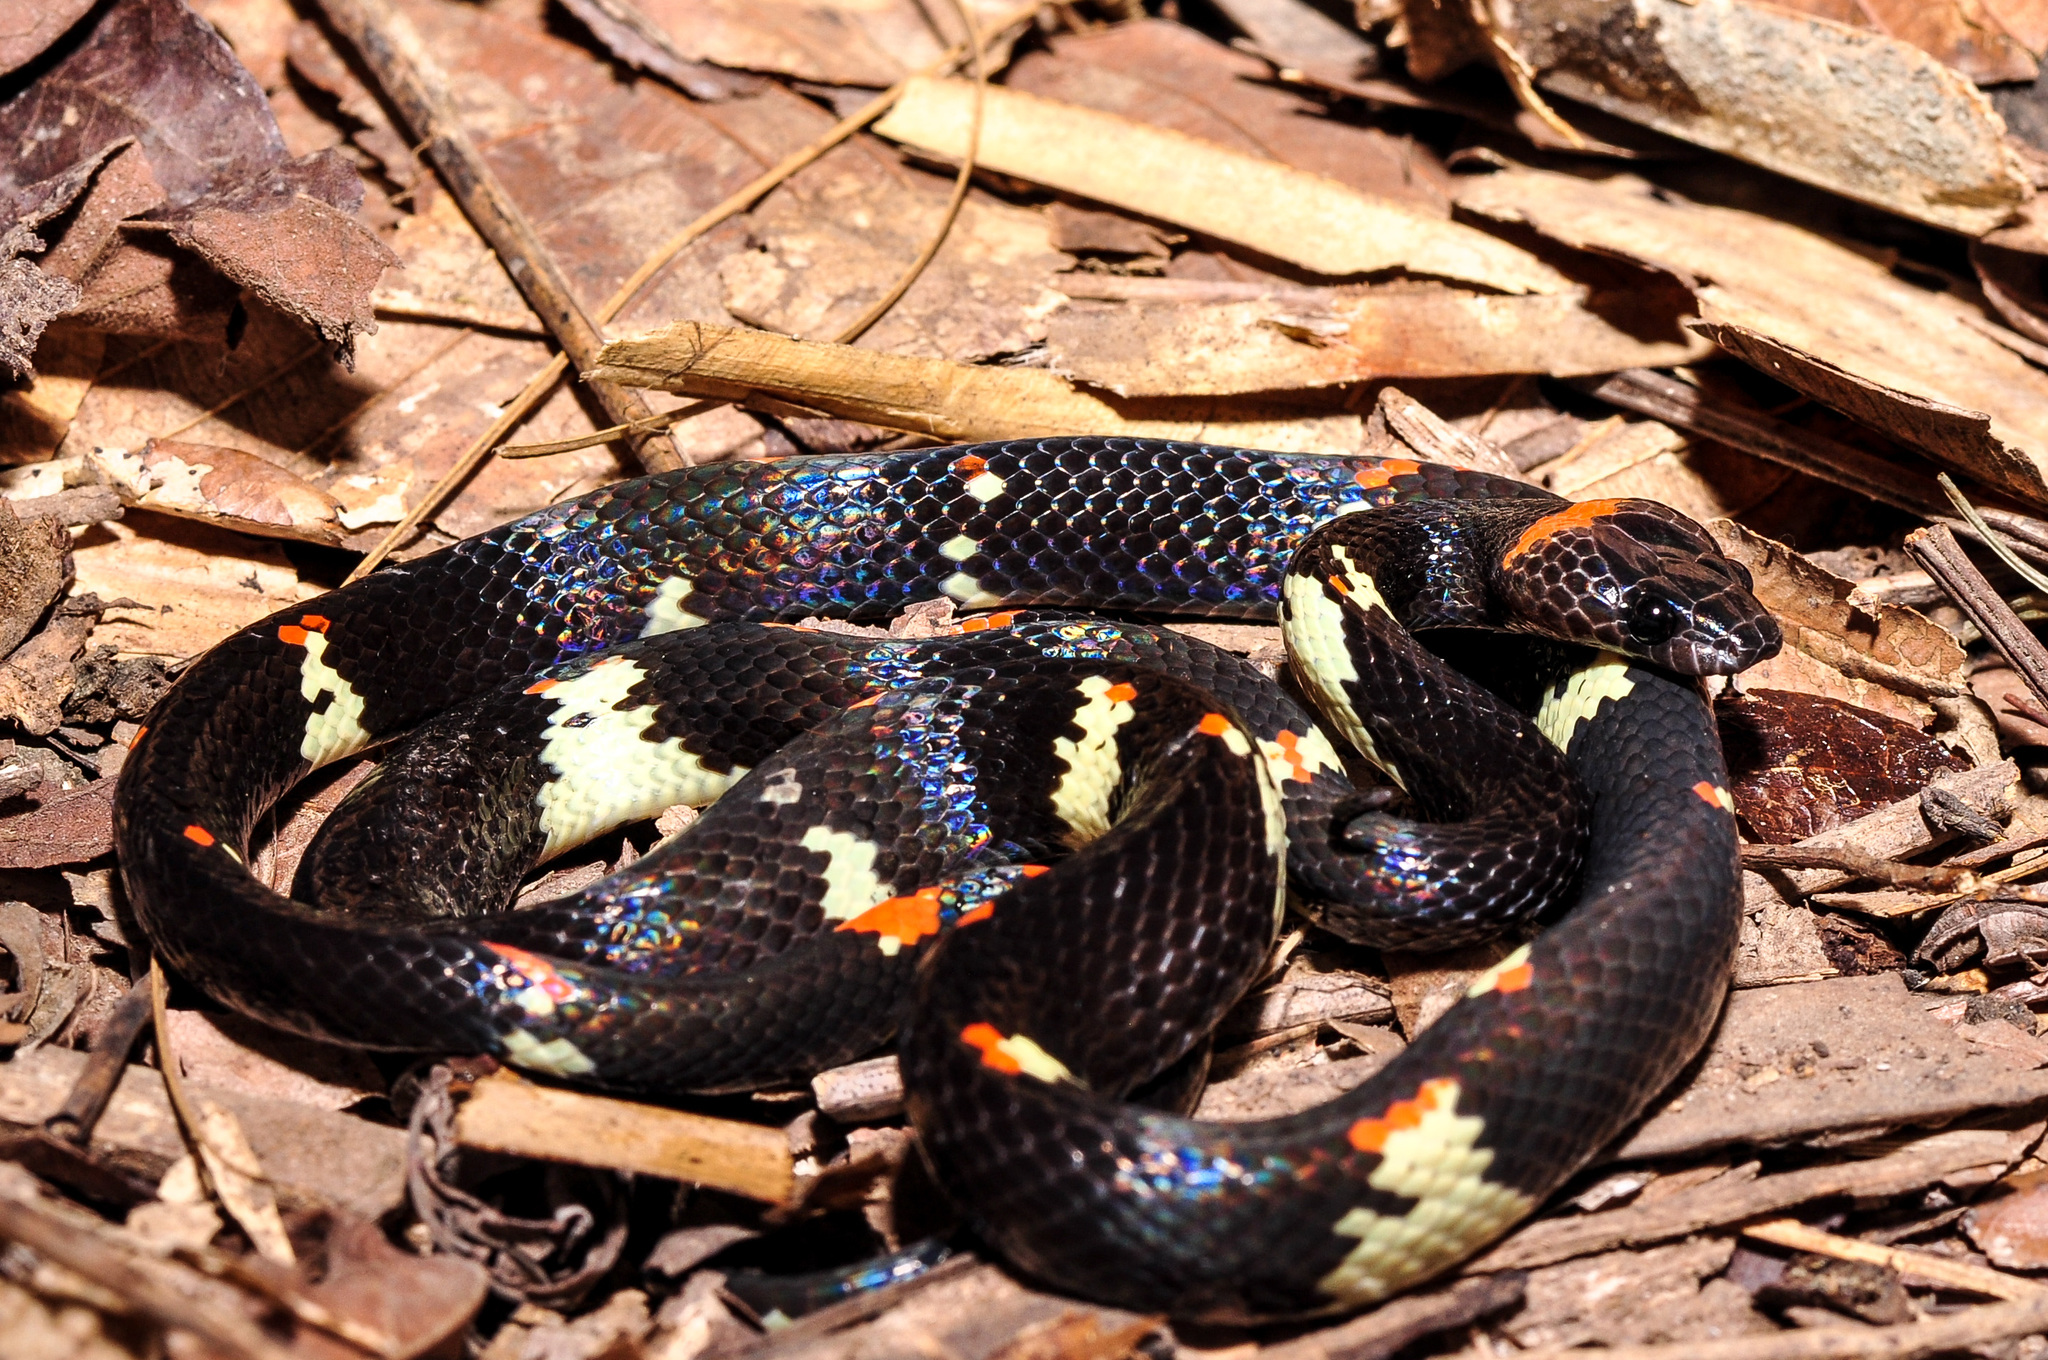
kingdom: Animalia
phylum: Chordata
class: Squamata
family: Colubridae
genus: Siphlophis
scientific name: Siphlophis worontzowi
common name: Worontzow's spotted night snake
